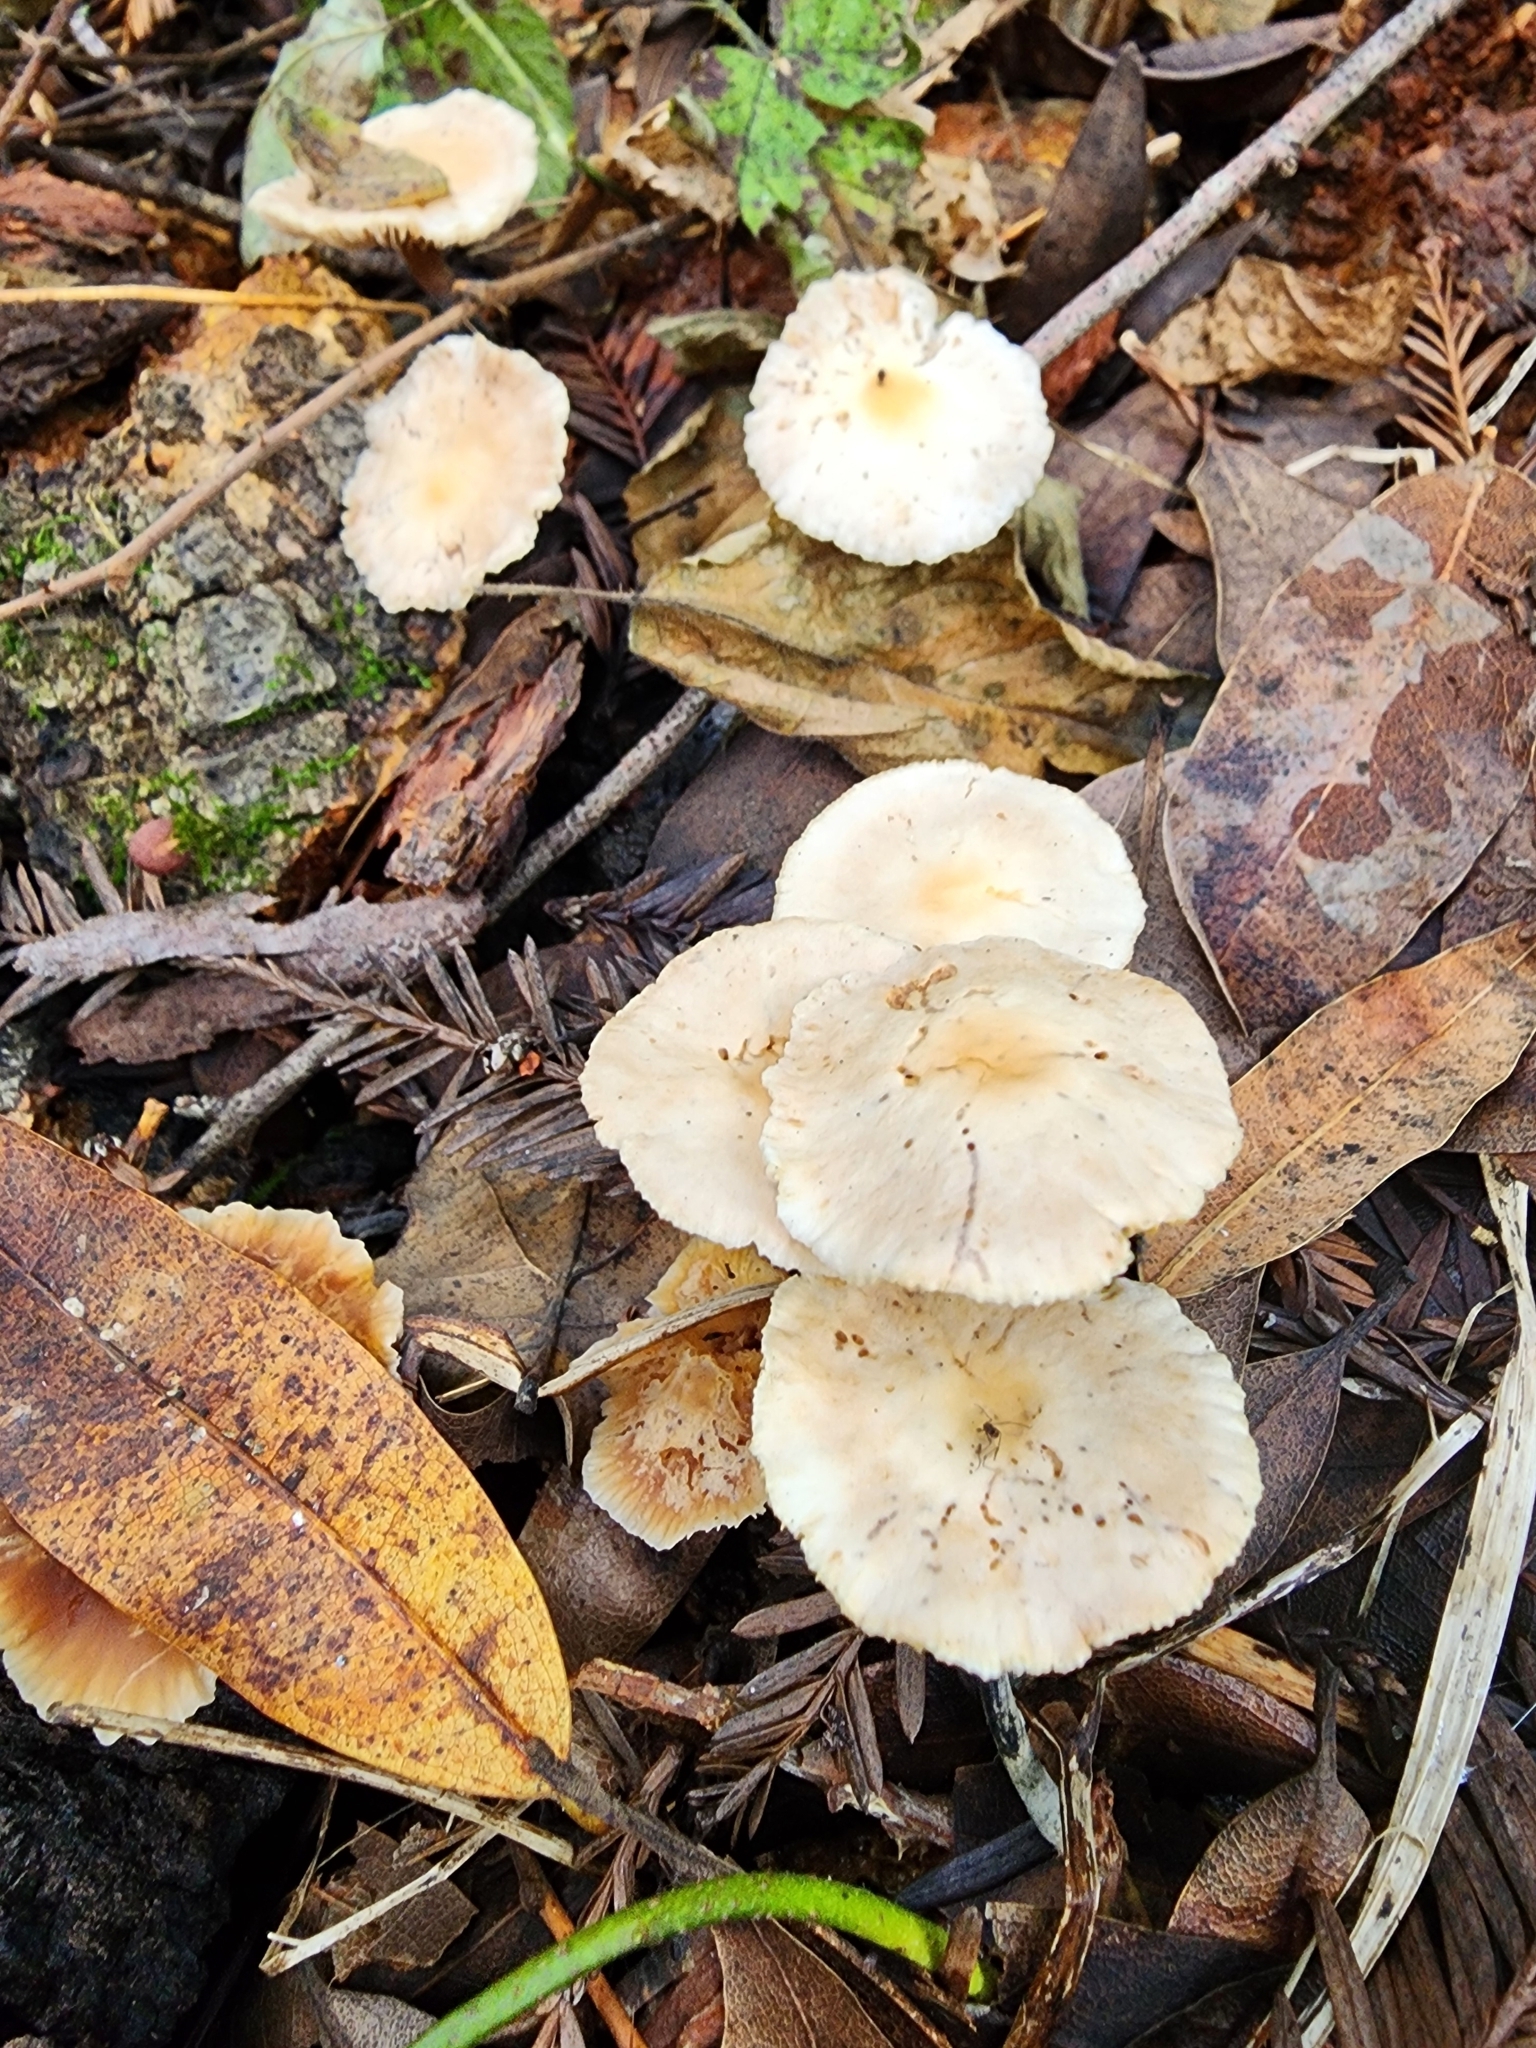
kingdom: Fungi
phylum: Basidiomycota
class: Agaricomycetes
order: Agaricales
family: Omphalotaceae
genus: Gymnopus
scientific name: Gymnopus brassicolens
